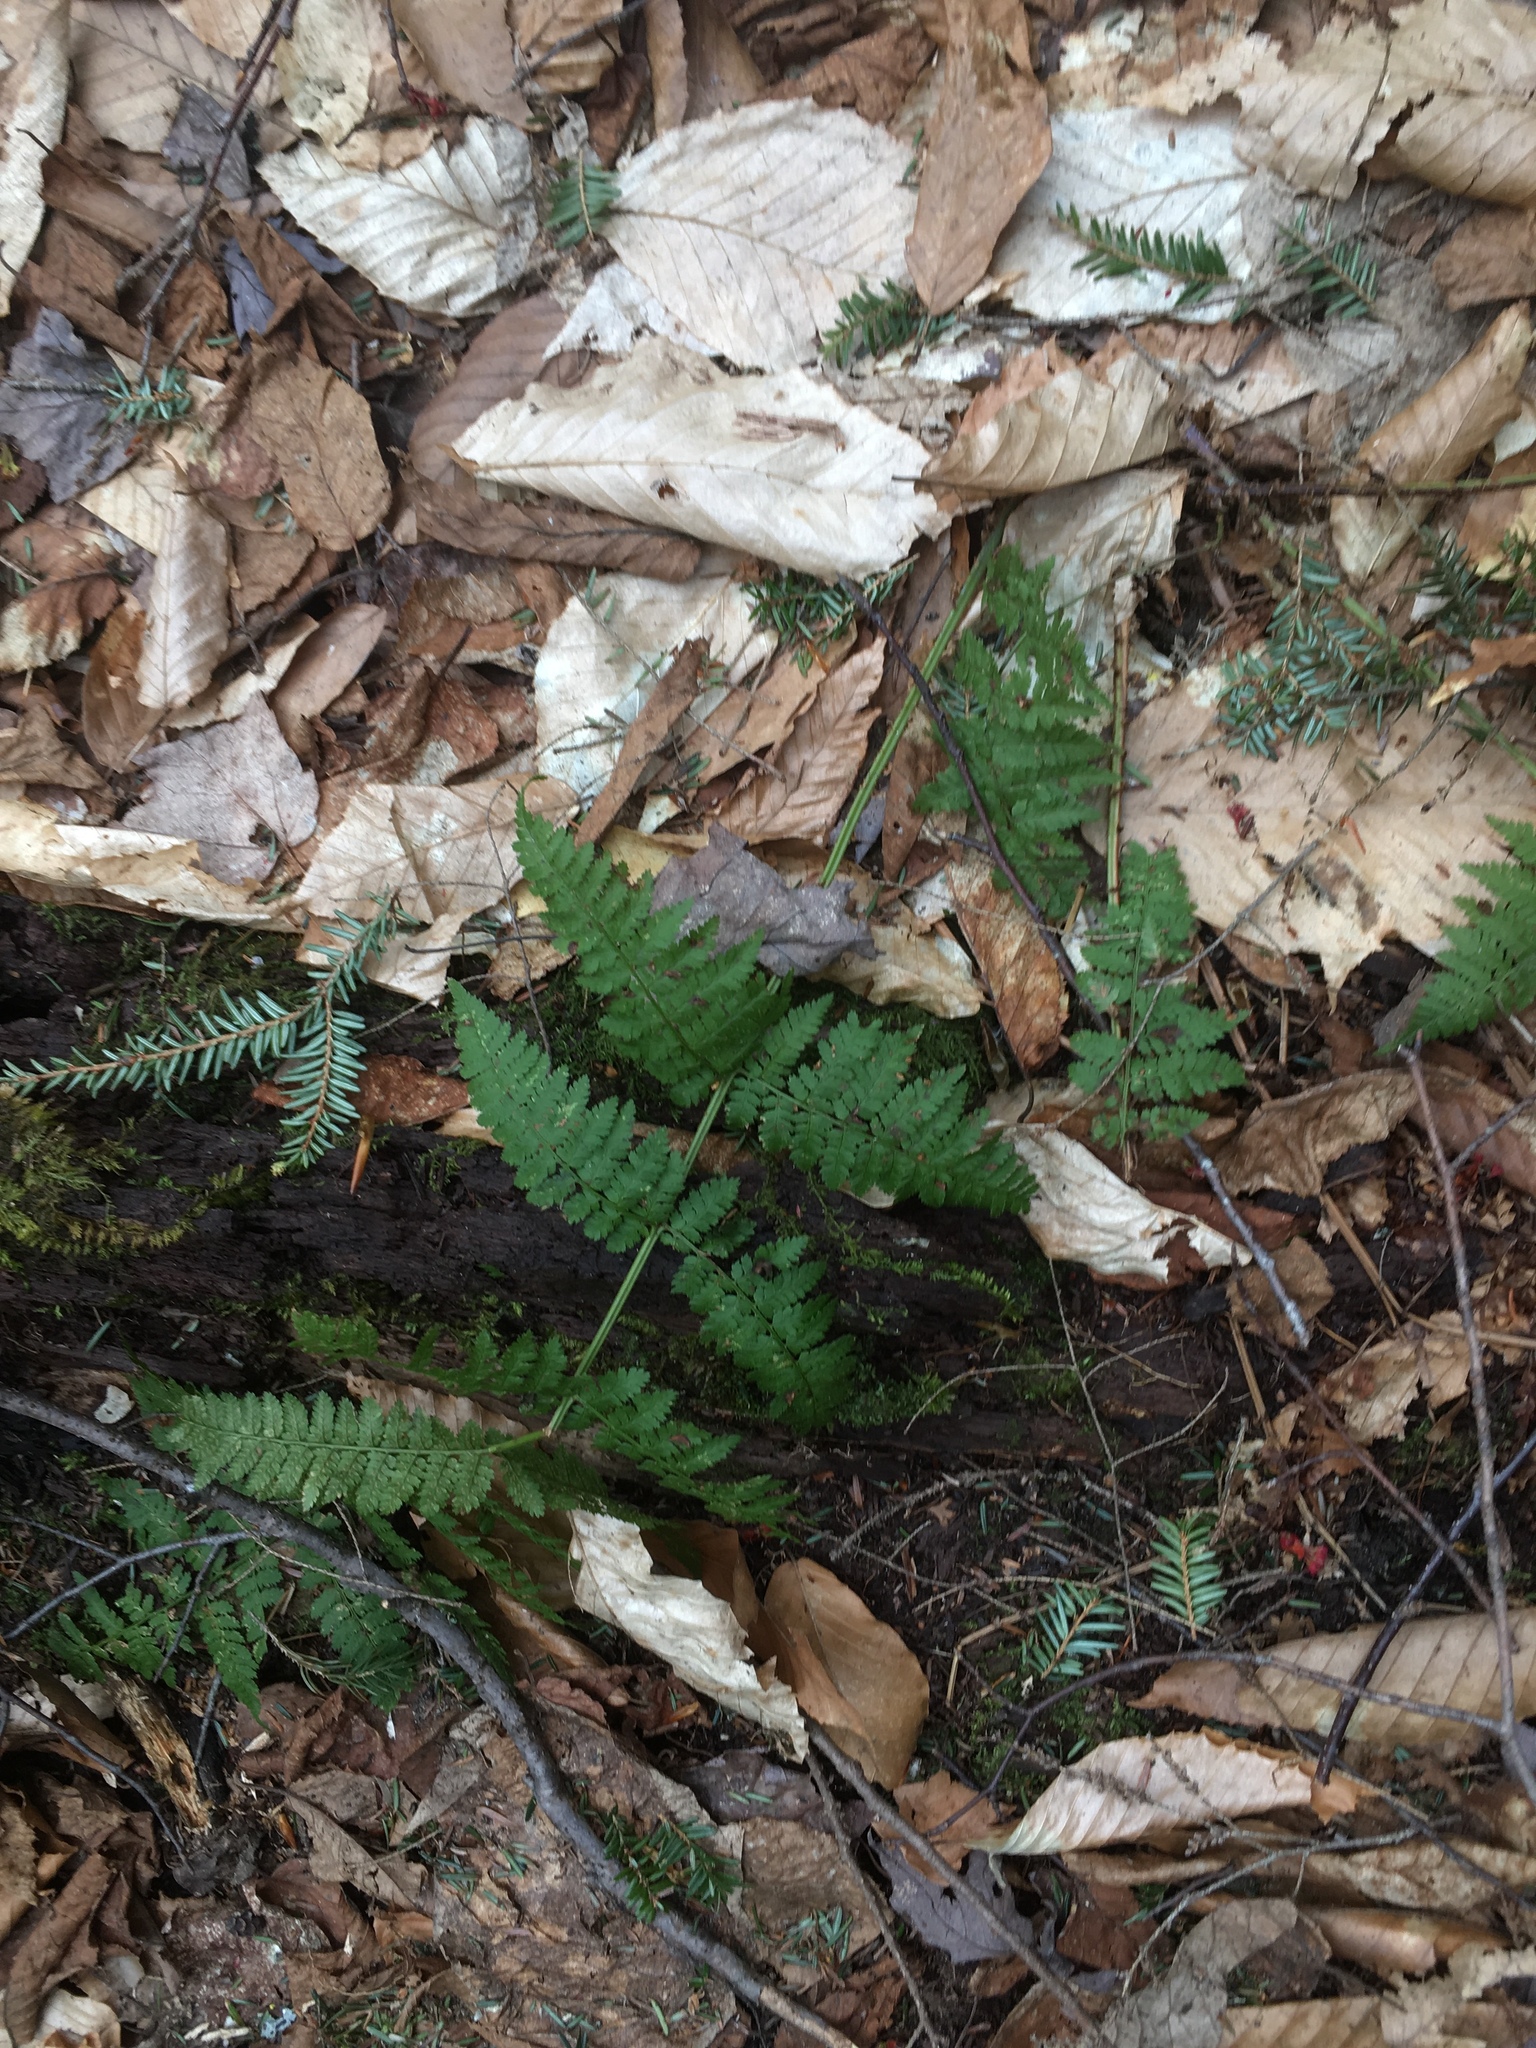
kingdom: Plantae
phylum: Tracheophyta
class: Polypodiopsida
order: Polypodiales
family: Dryopteridaceae
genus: Dryopteris
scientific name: Dryopteris intermedia
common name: Evergreen wood fern
